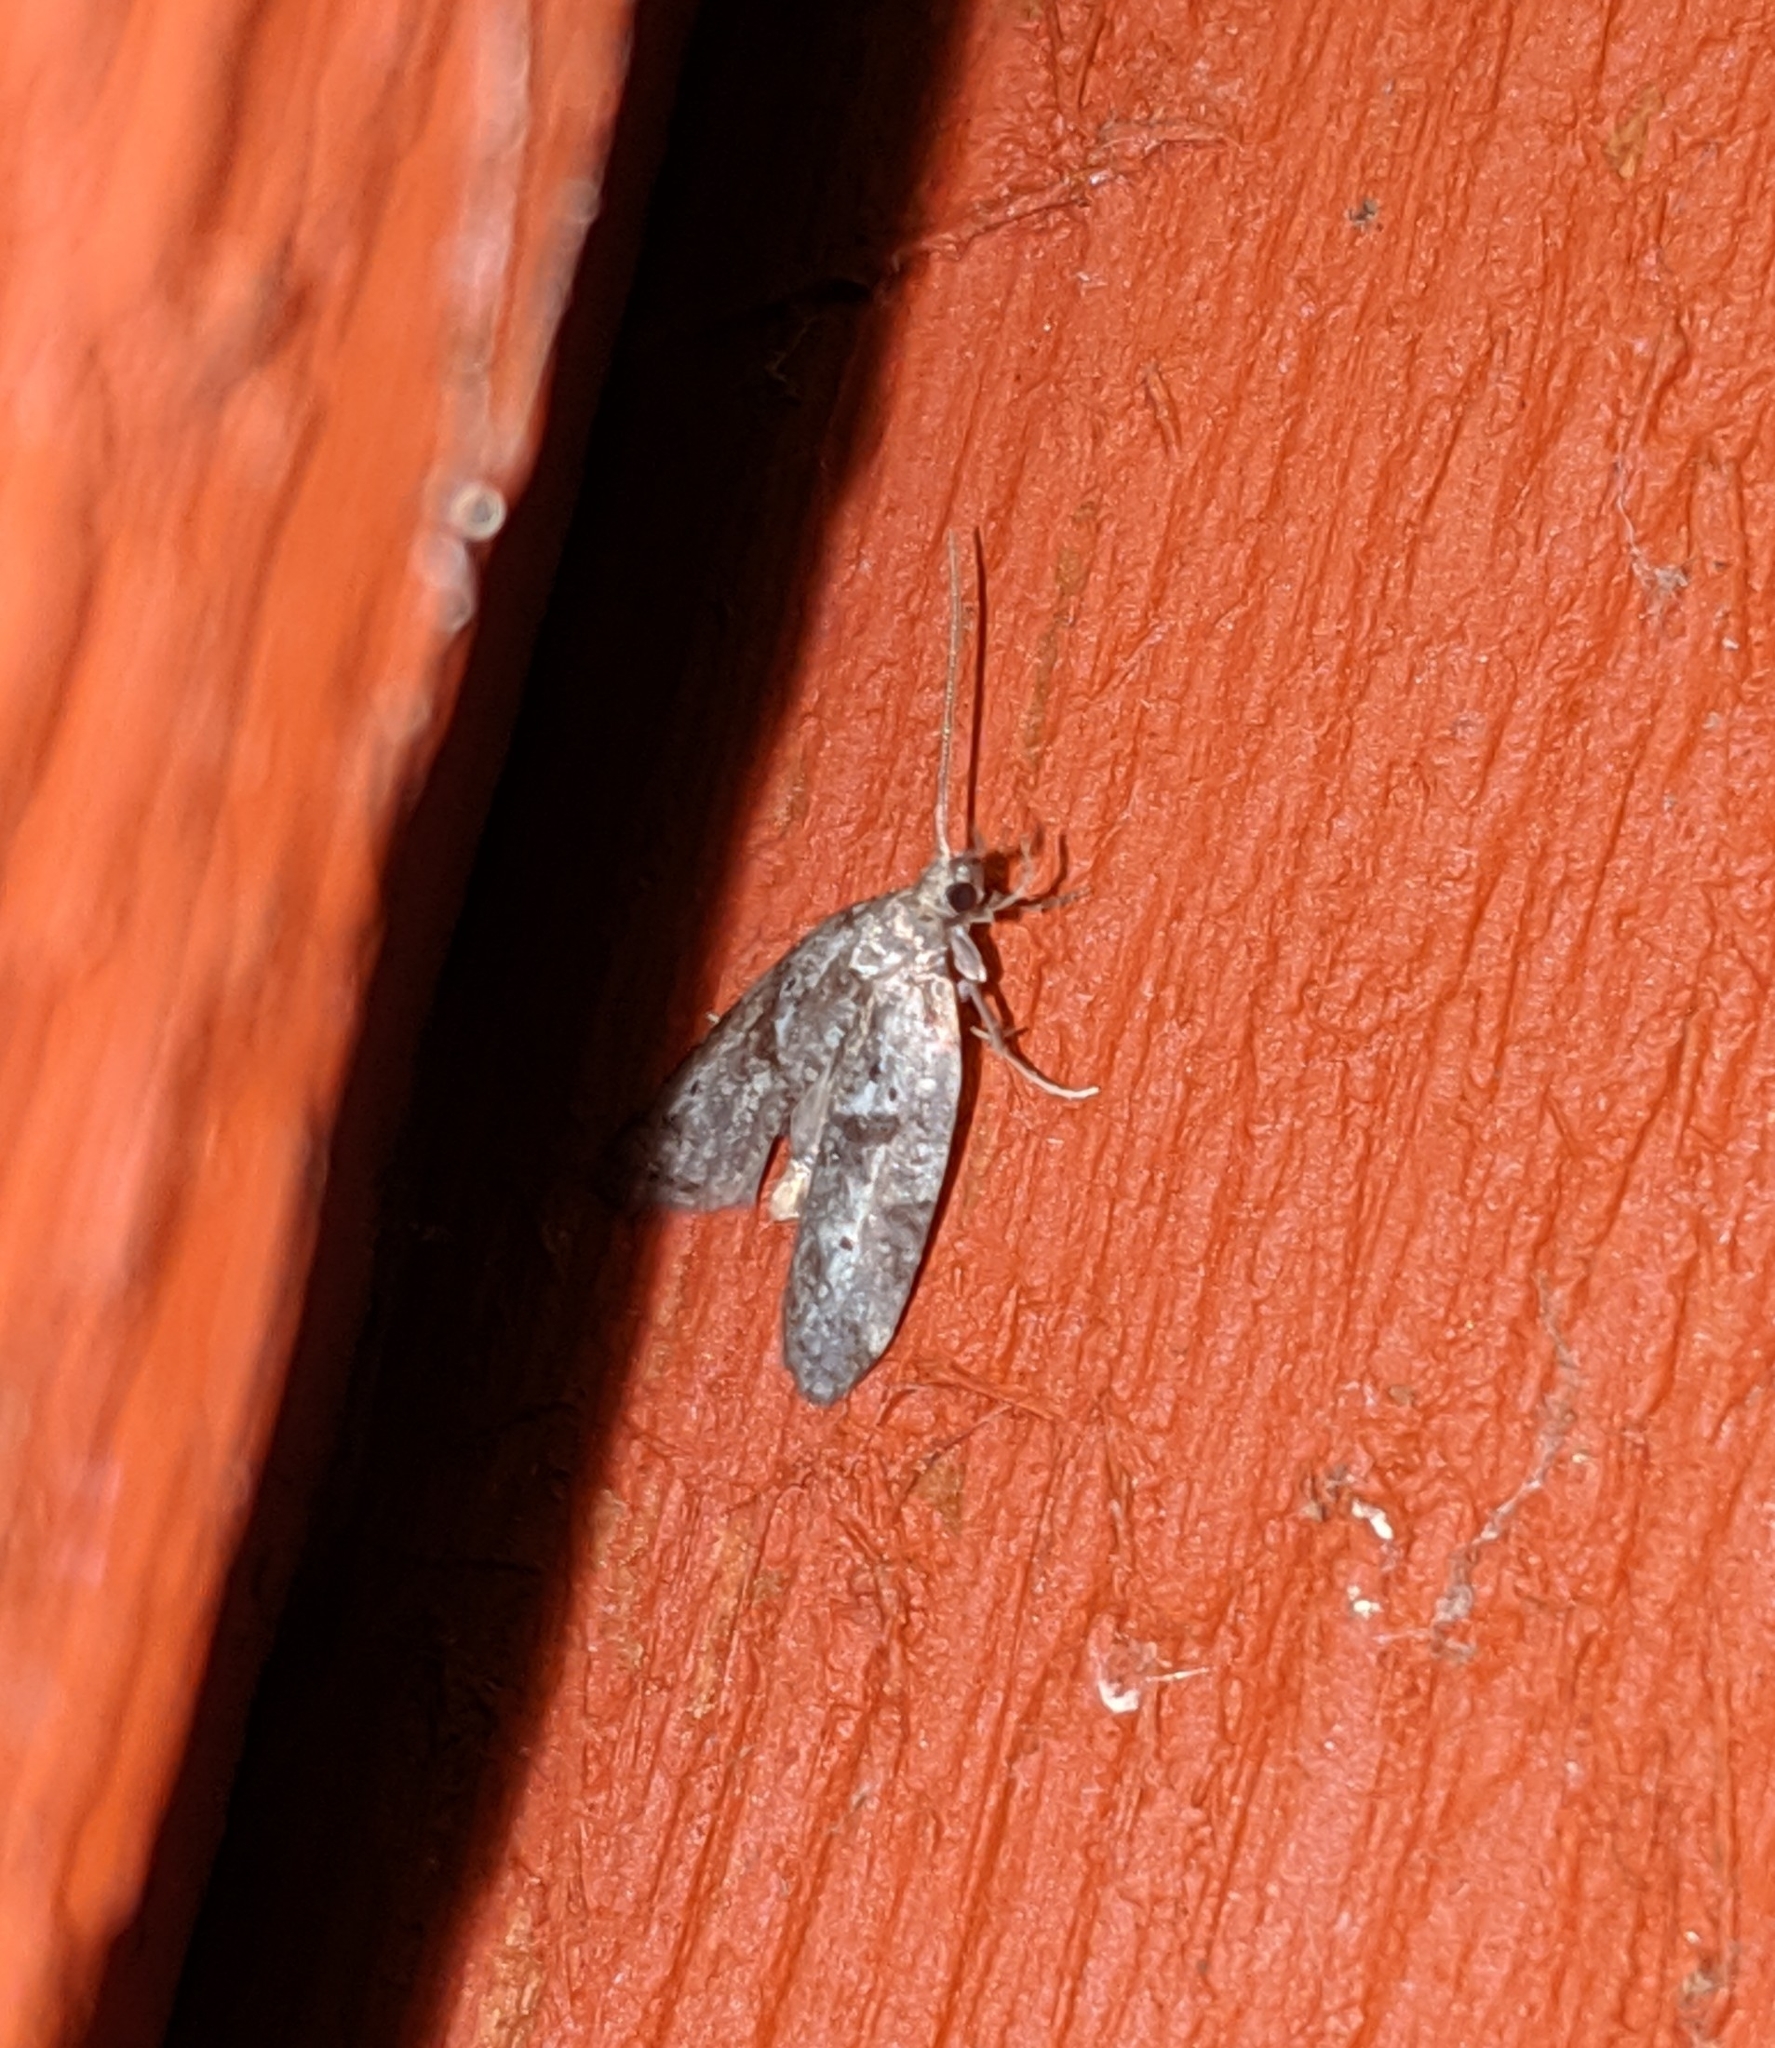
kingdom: Animalia
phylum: Arthropoda
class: Insecta
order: Lepidoptera
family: Copromorphidae
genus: Lotisma
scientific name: Lotisma trigonana
